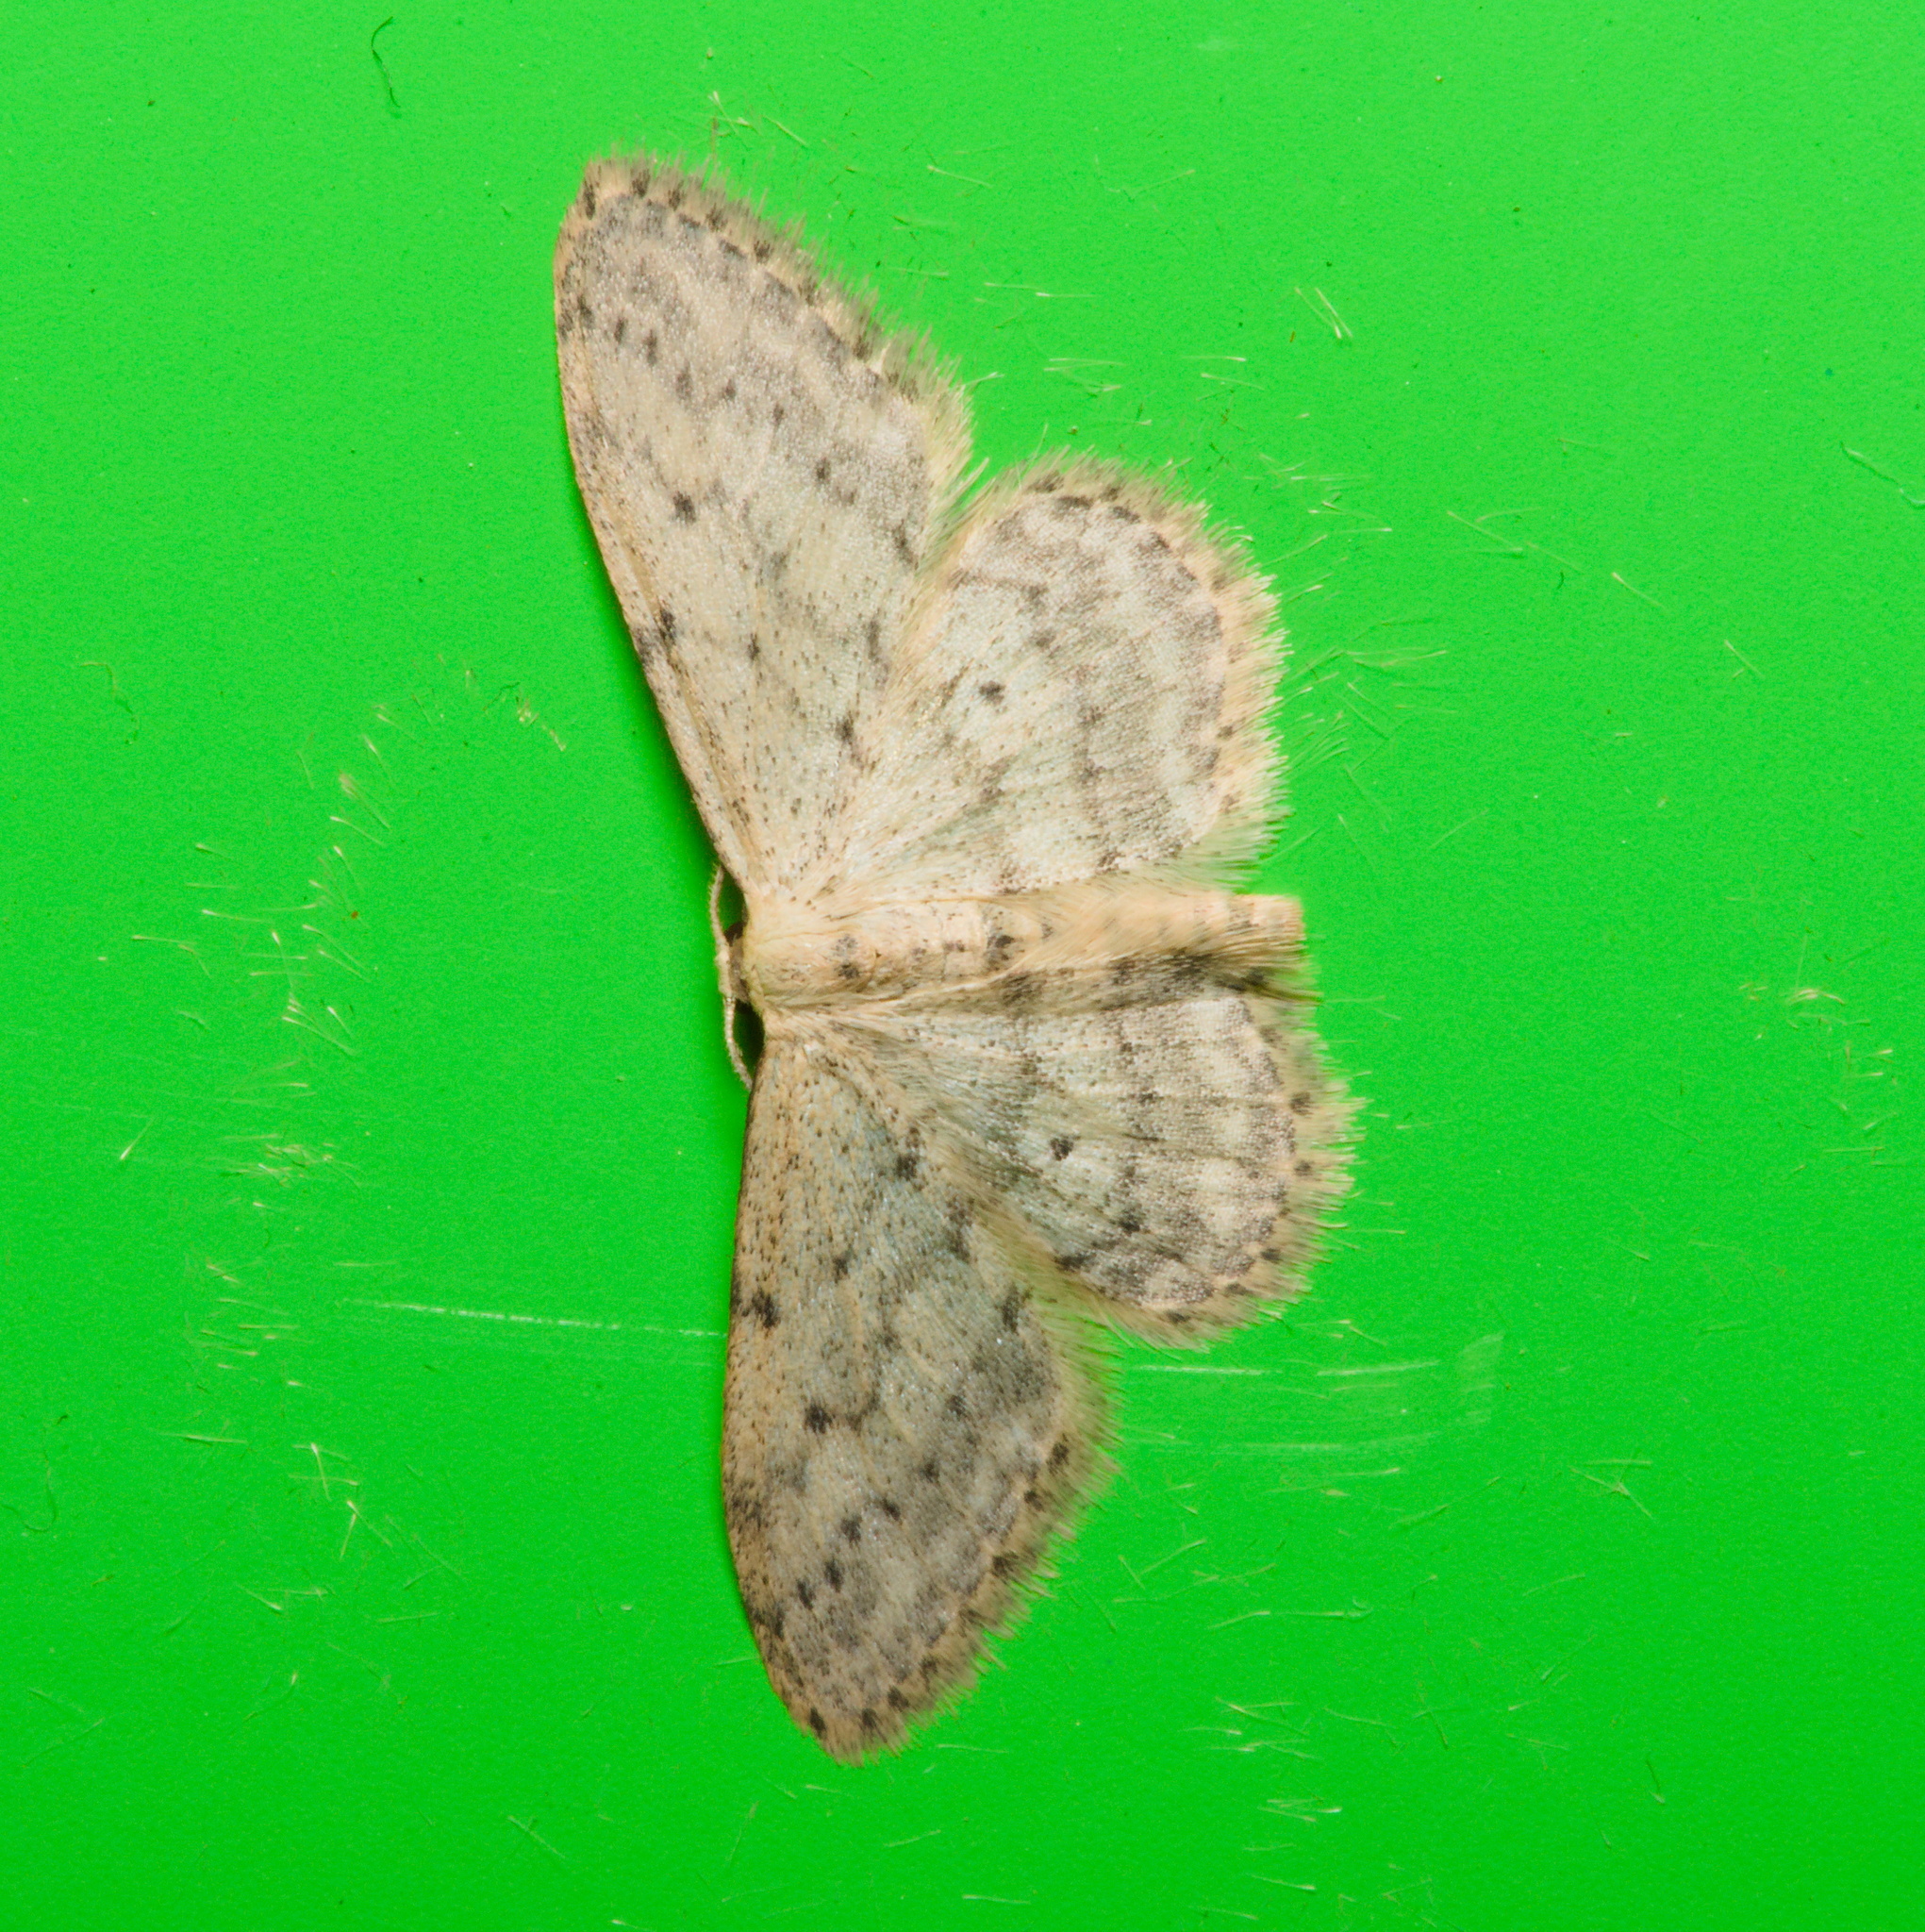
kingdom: Animalia
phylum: Arthropoda
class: Insecta
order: Lepidoptera
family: Geometridae
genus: Idaea
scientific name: Idaea seriata
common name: Small dusty wave
